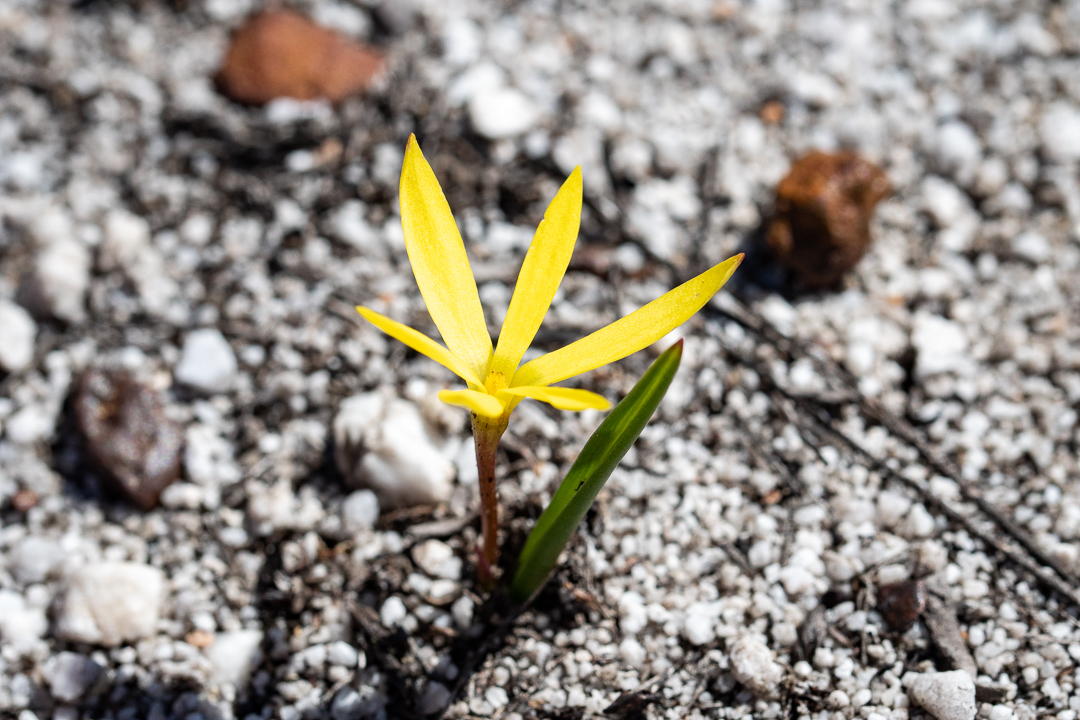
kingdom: Plantae
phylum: Tracheophyta
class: Liliopsida
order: Asparagales
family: Hypoxidaceae
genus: Pauridia
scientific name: Pauridia monophylla
